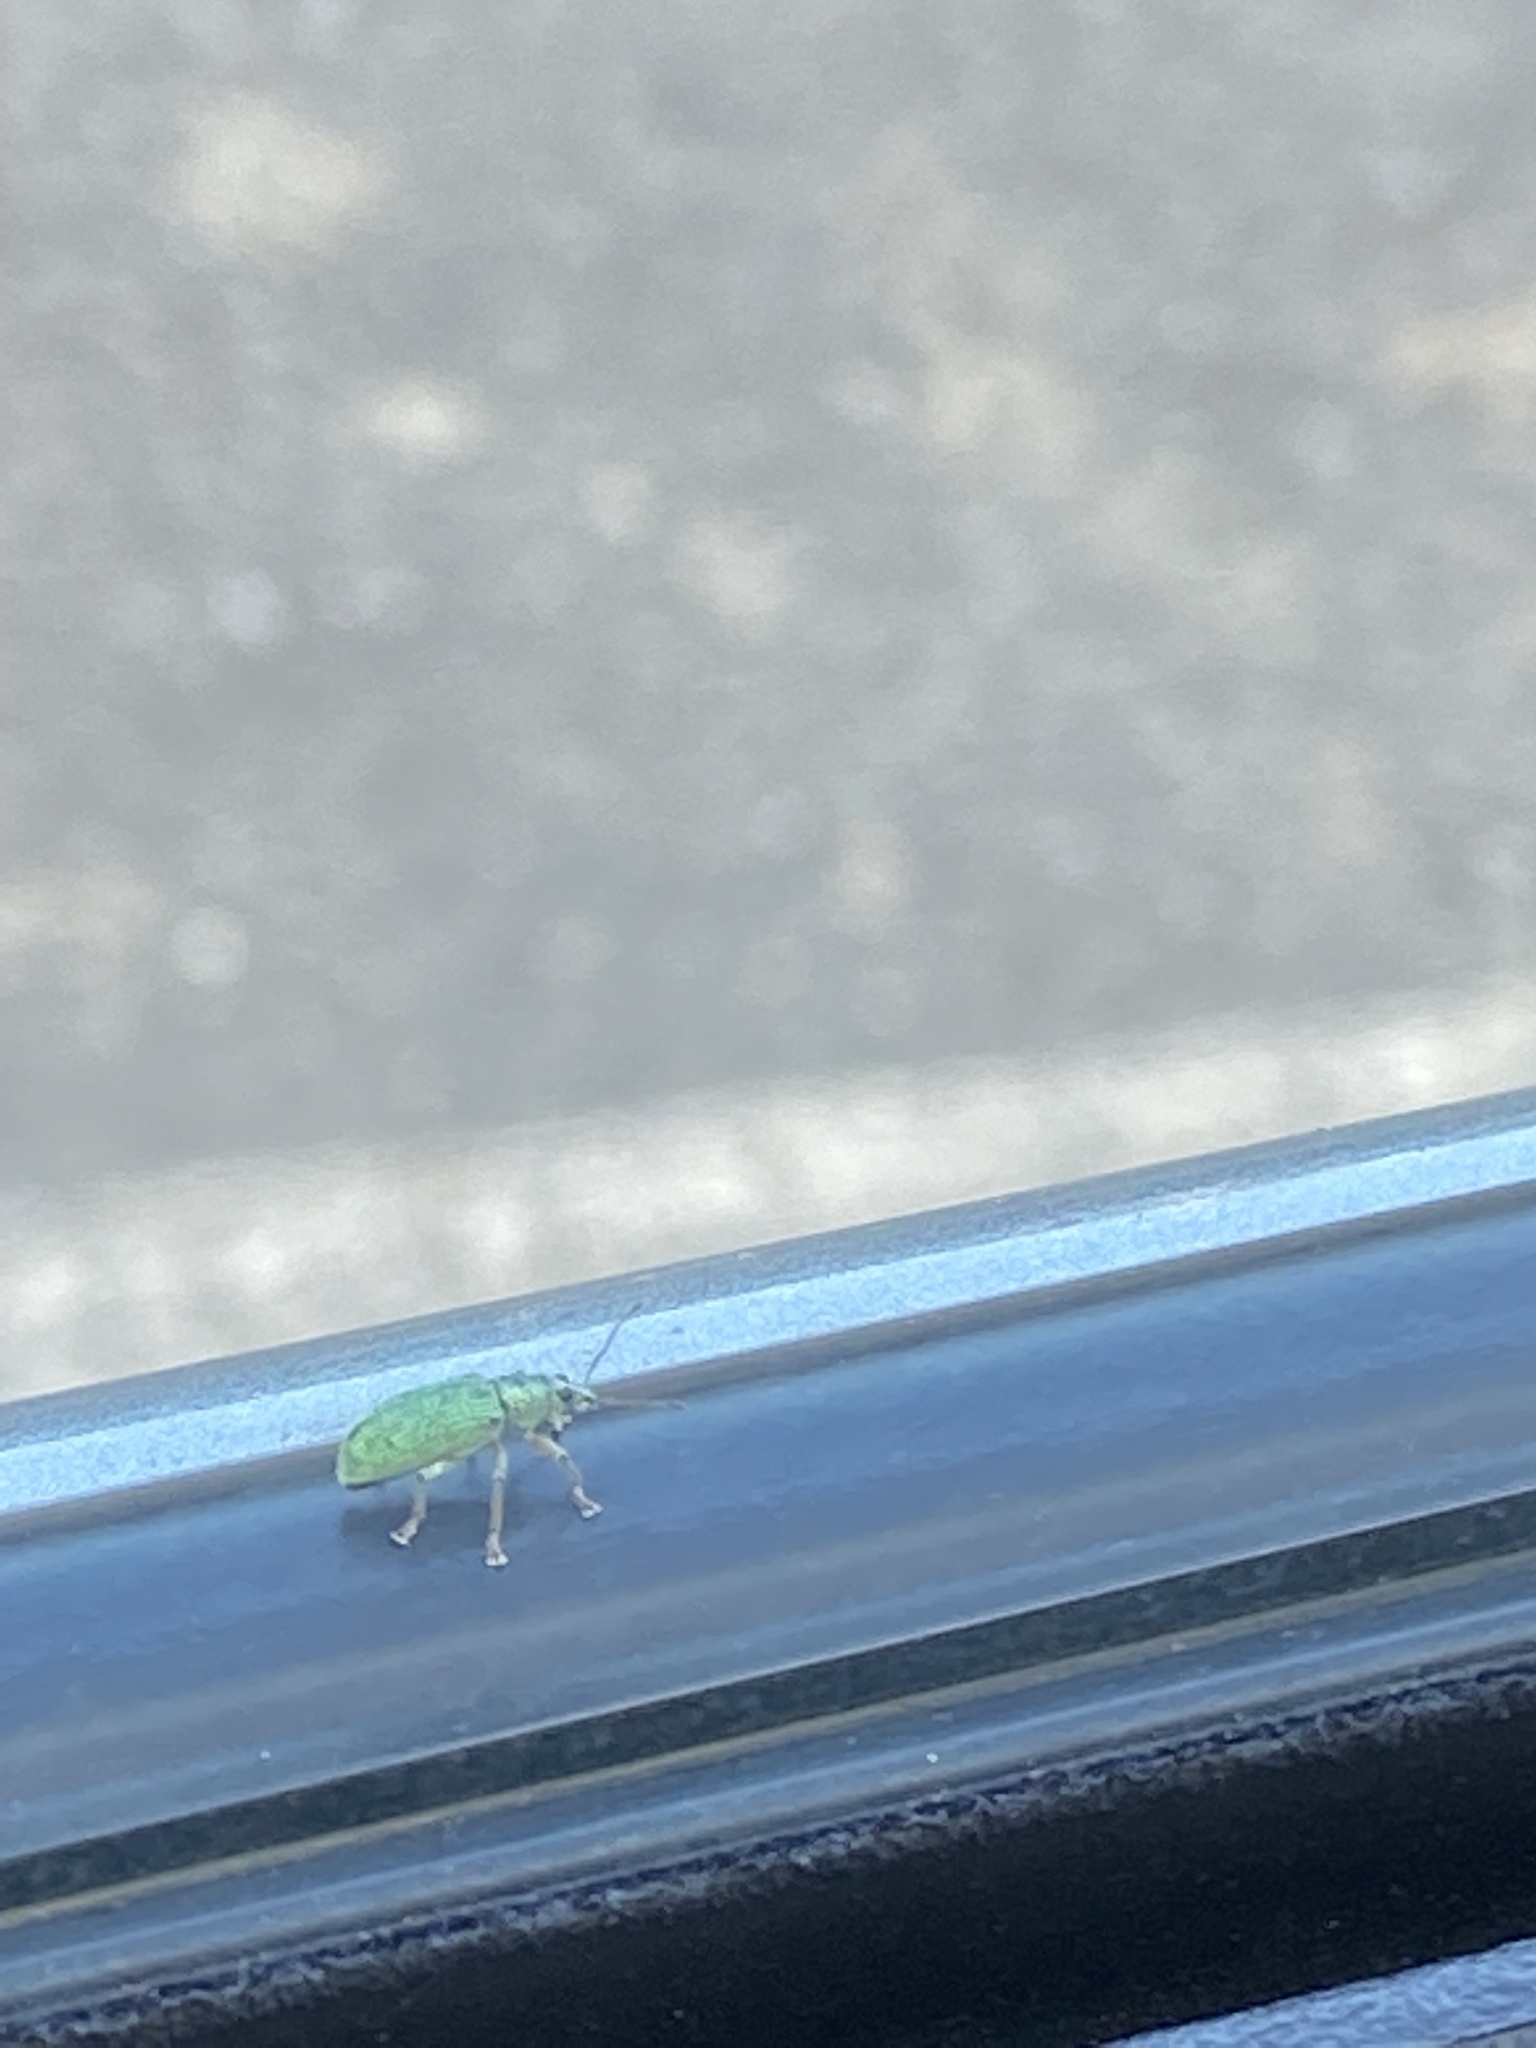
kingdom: Animalia
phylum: Arthropoda
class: Insecta
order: Coleoptera
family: Curculionidae
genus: Polydrusus
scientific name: Polydrusus formosus
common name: Weevil
